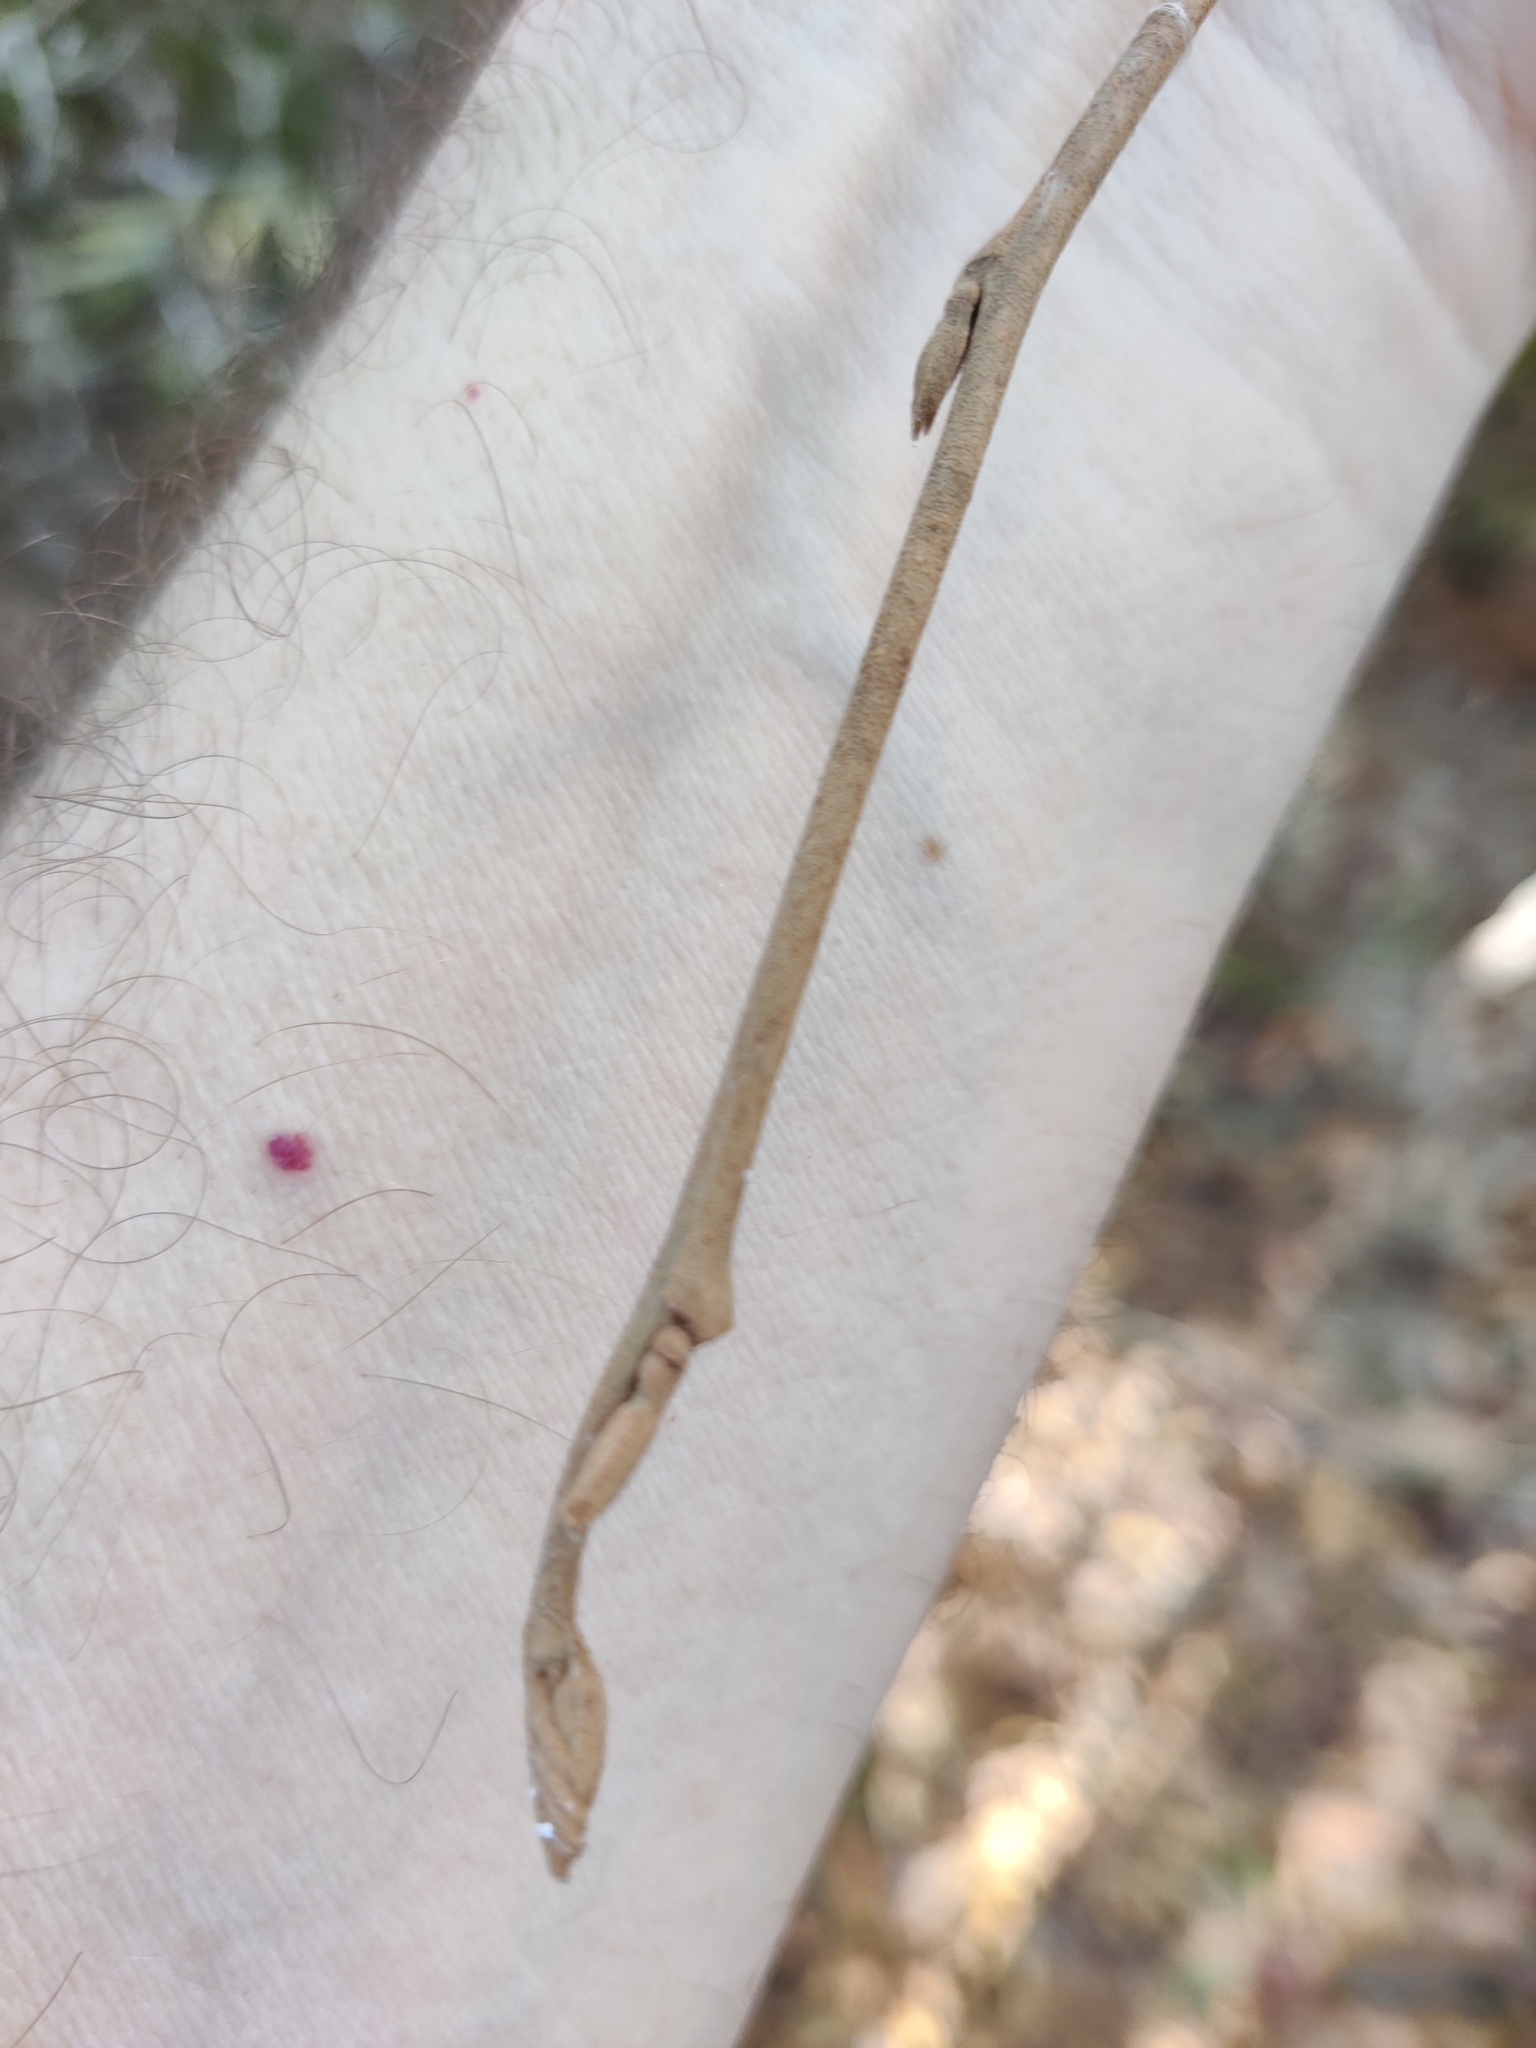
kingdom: Plantae
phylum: Tracheophyta
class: Magnoliopsida
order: Saxifragales
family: Hamamelidaceae
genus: Hamamelis
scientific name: Hamamelis virginiana
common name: Witch-hazel
